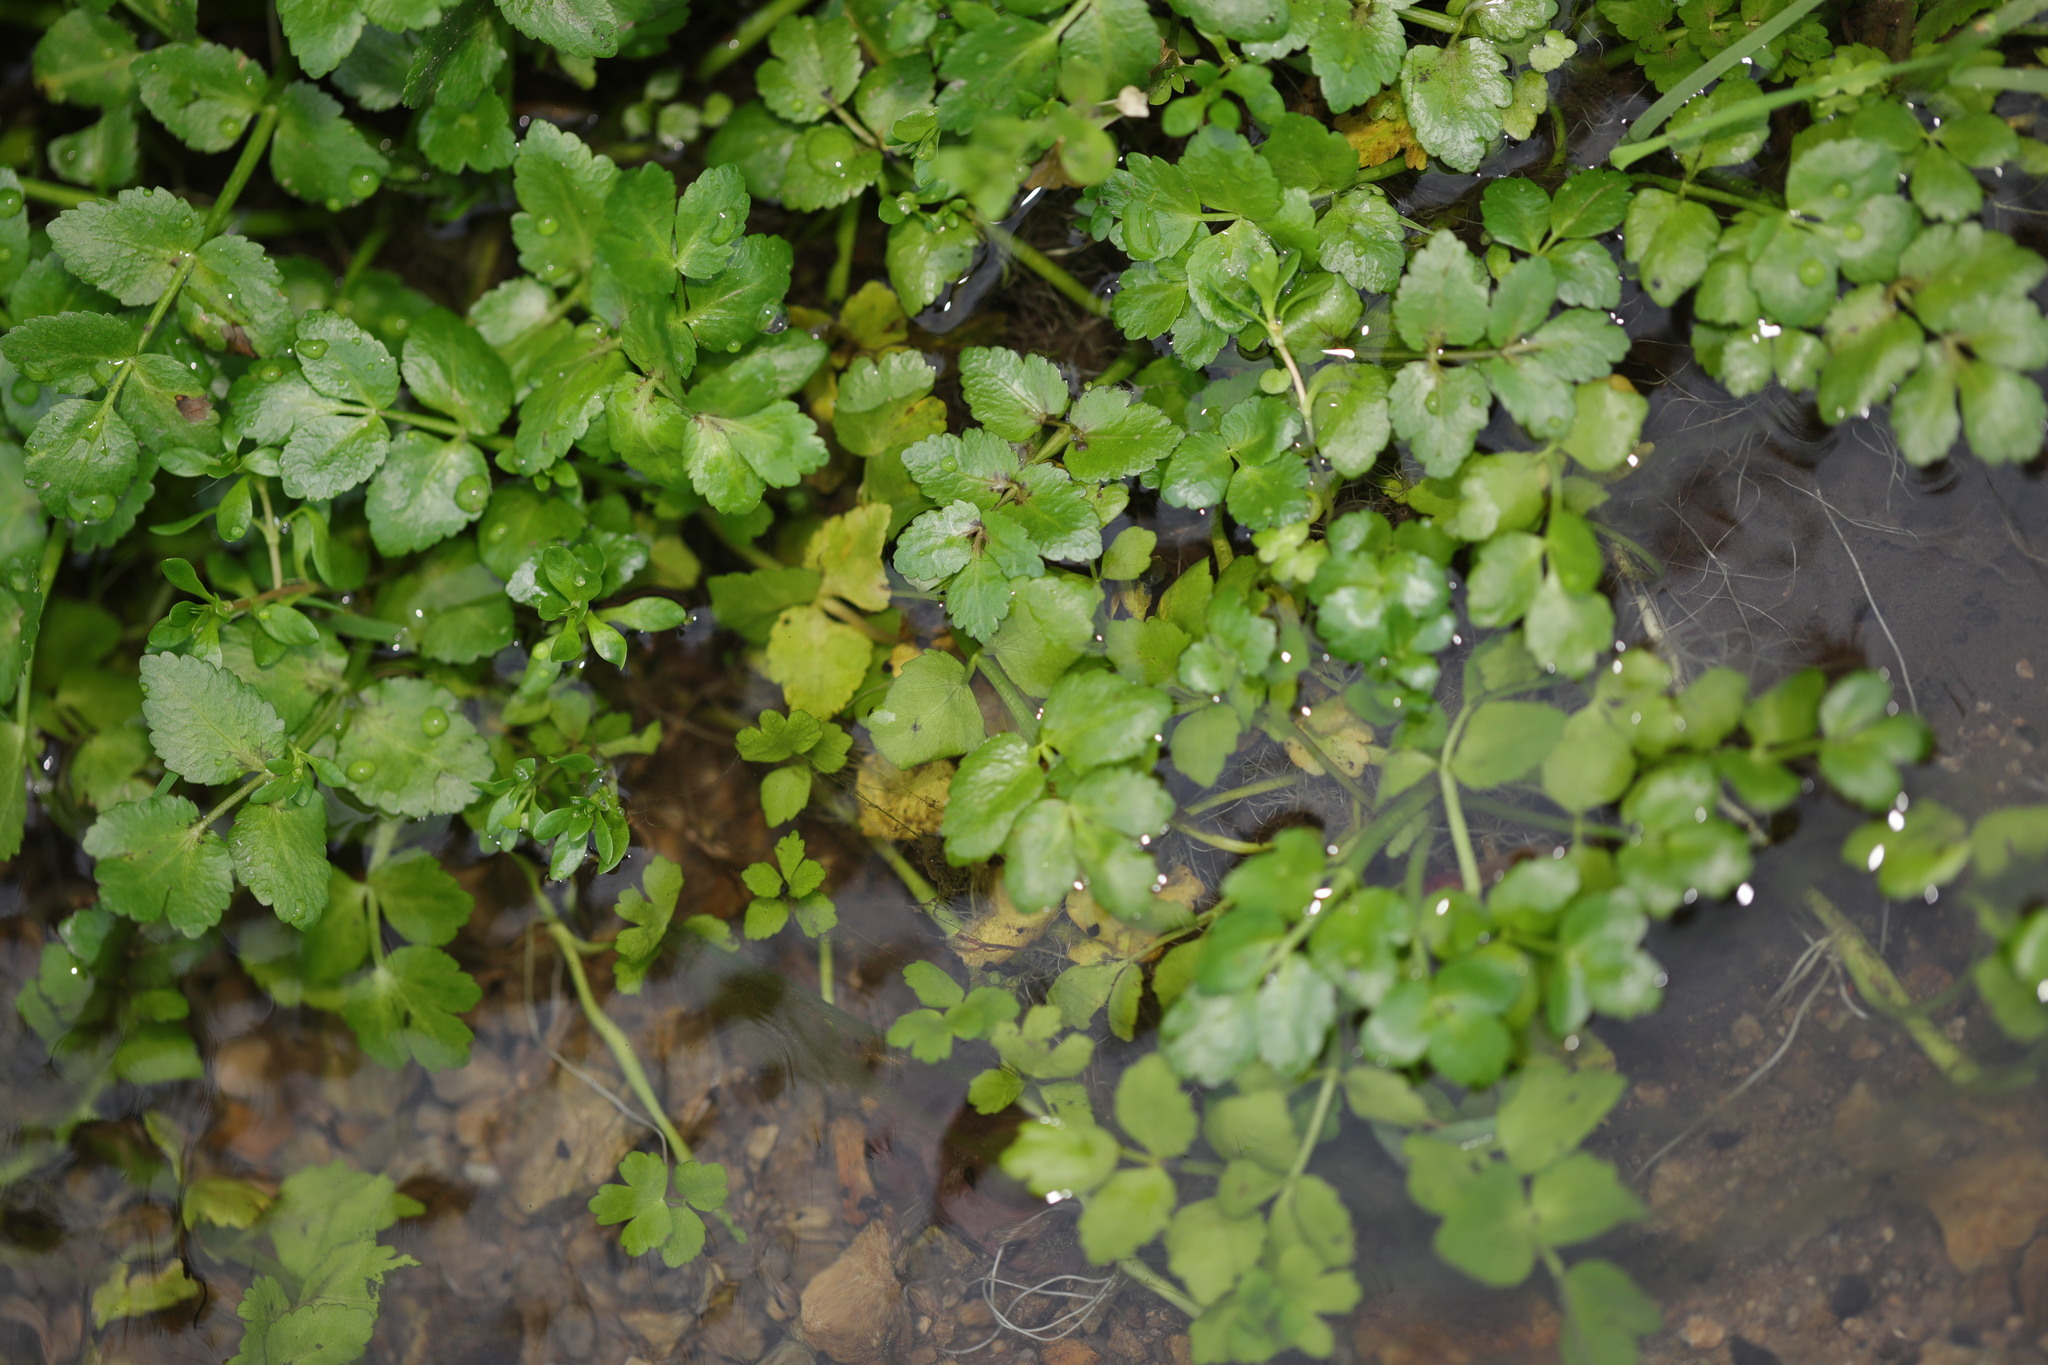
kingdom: Plantae
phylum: Tracheophyta
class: Magnoliopsida
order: Apiales
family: Apiaceae
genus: Helosciadium
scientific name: Helosciadium nodiflorum
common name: Fool's-watercress
